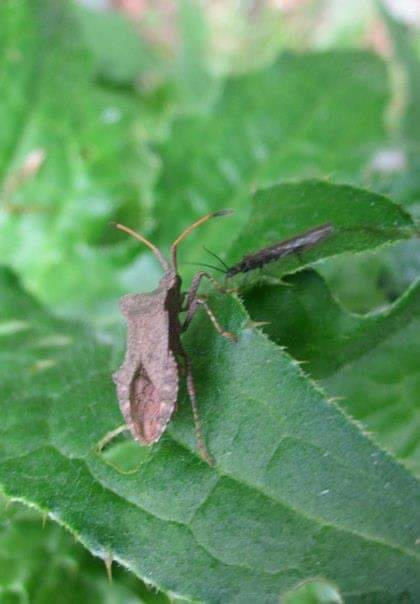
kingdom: Animalia
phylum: Arthropoda
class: Insecta
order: Hemiptera
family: Coreidae
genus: Coreus
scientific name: Coreus marginatus
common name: Dock bug
